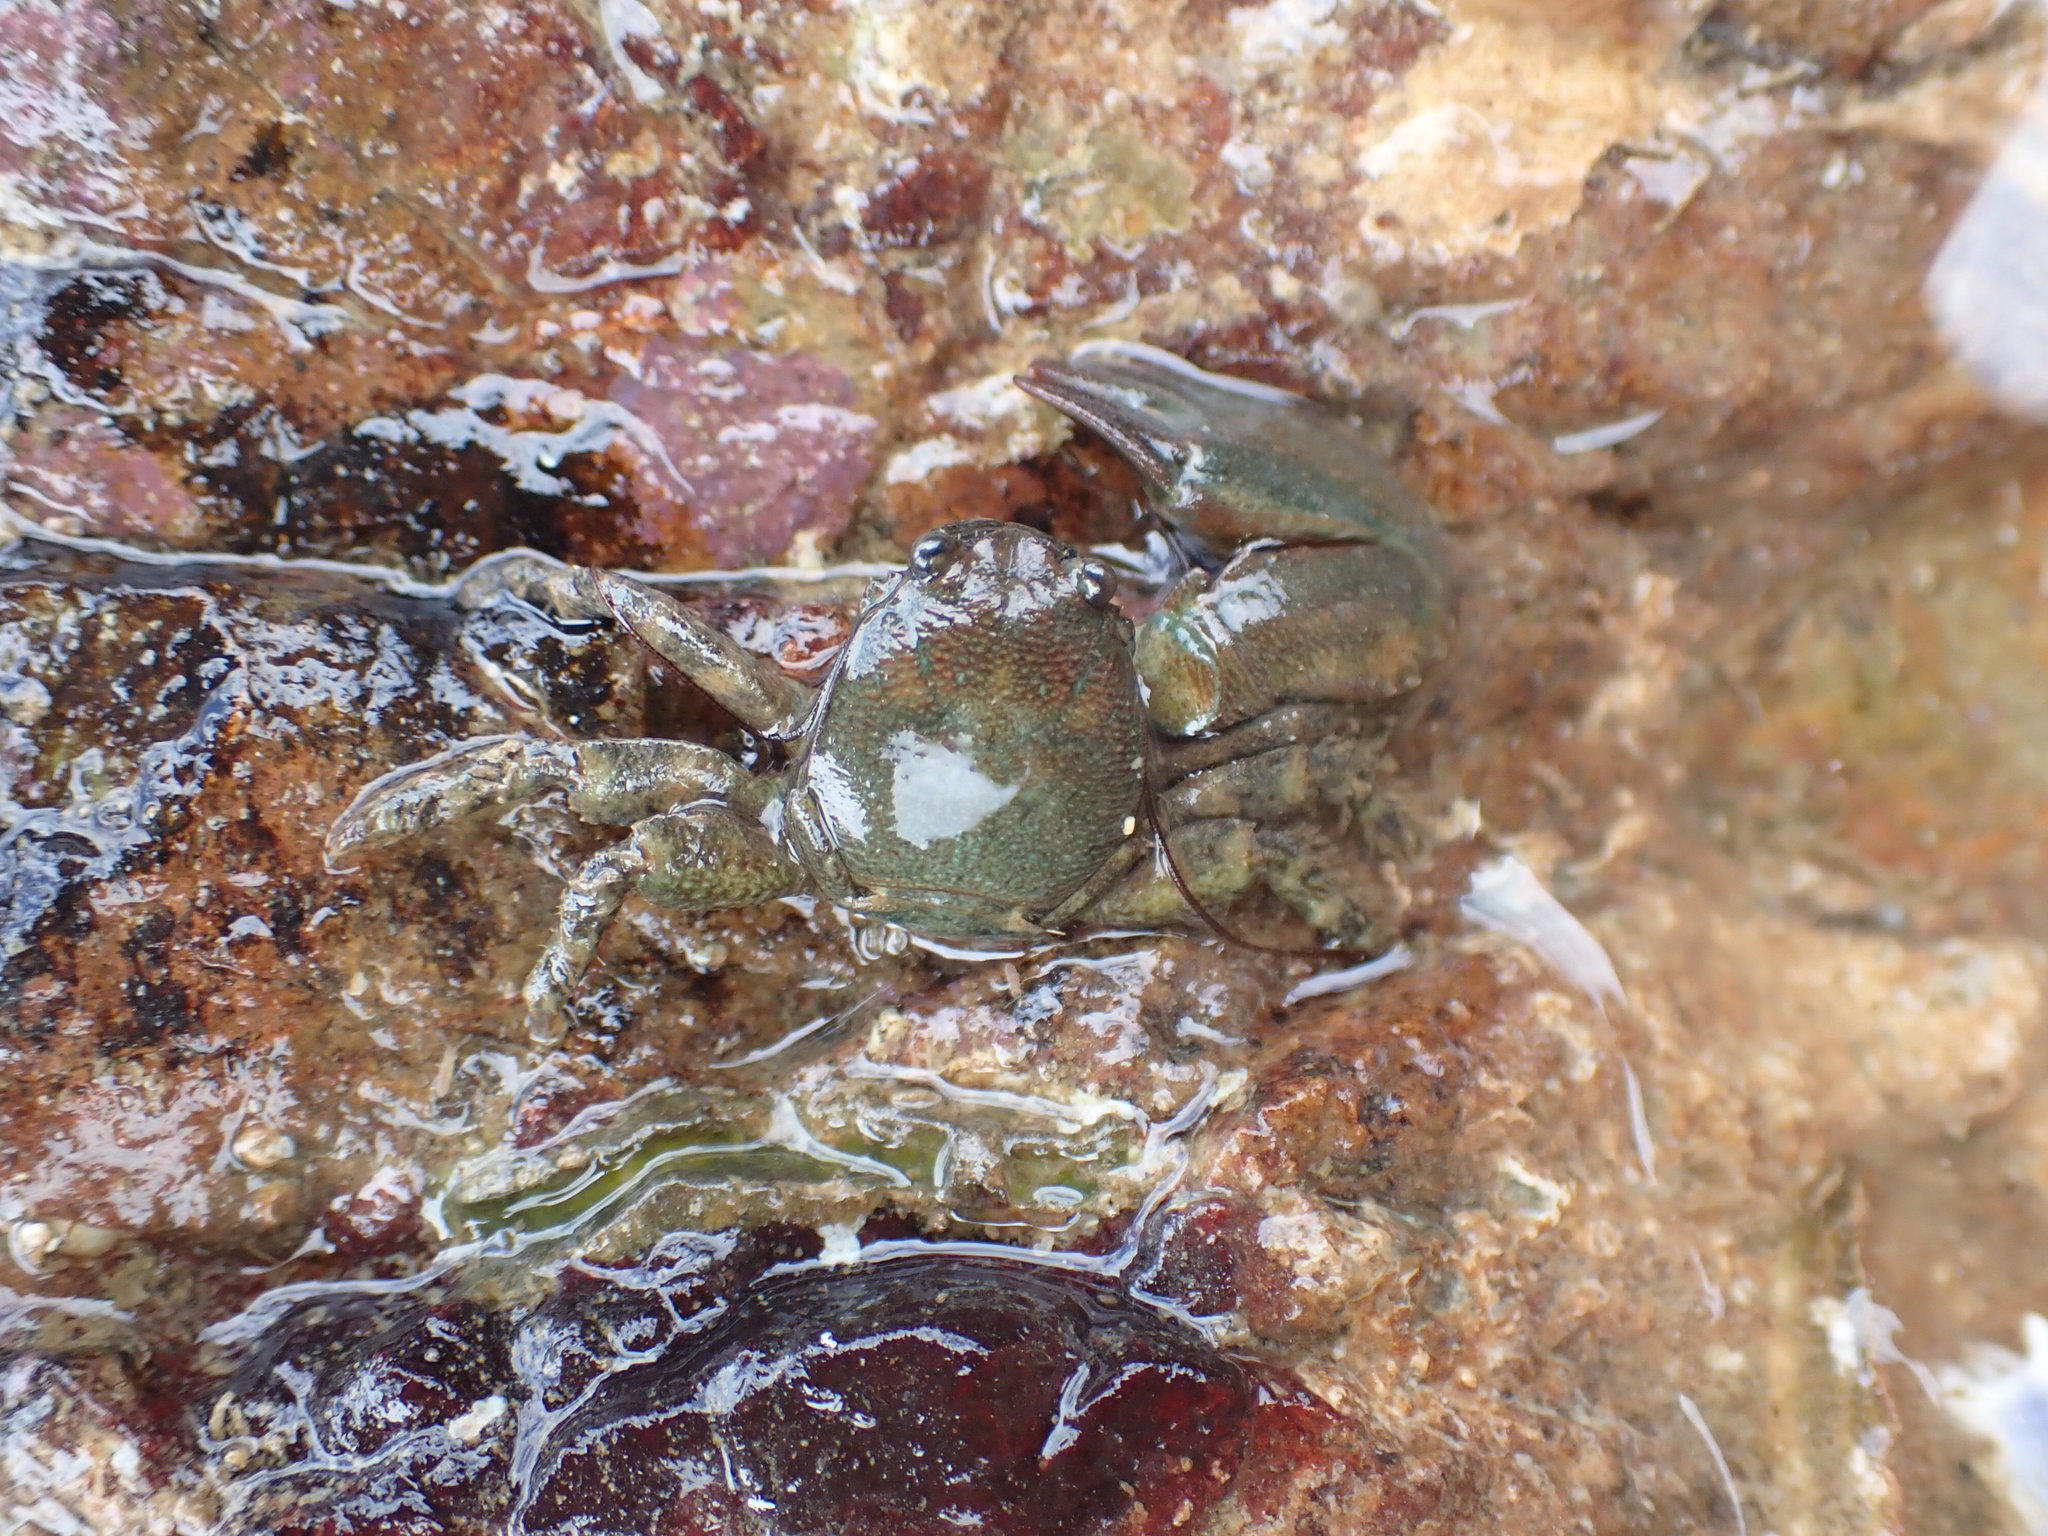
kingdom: Animalia
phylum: Arthropoda
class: Malacostraca
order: Decapoda
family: Porcellanidae
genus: Petrolisthes
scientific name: Petrolisthes elongatus
